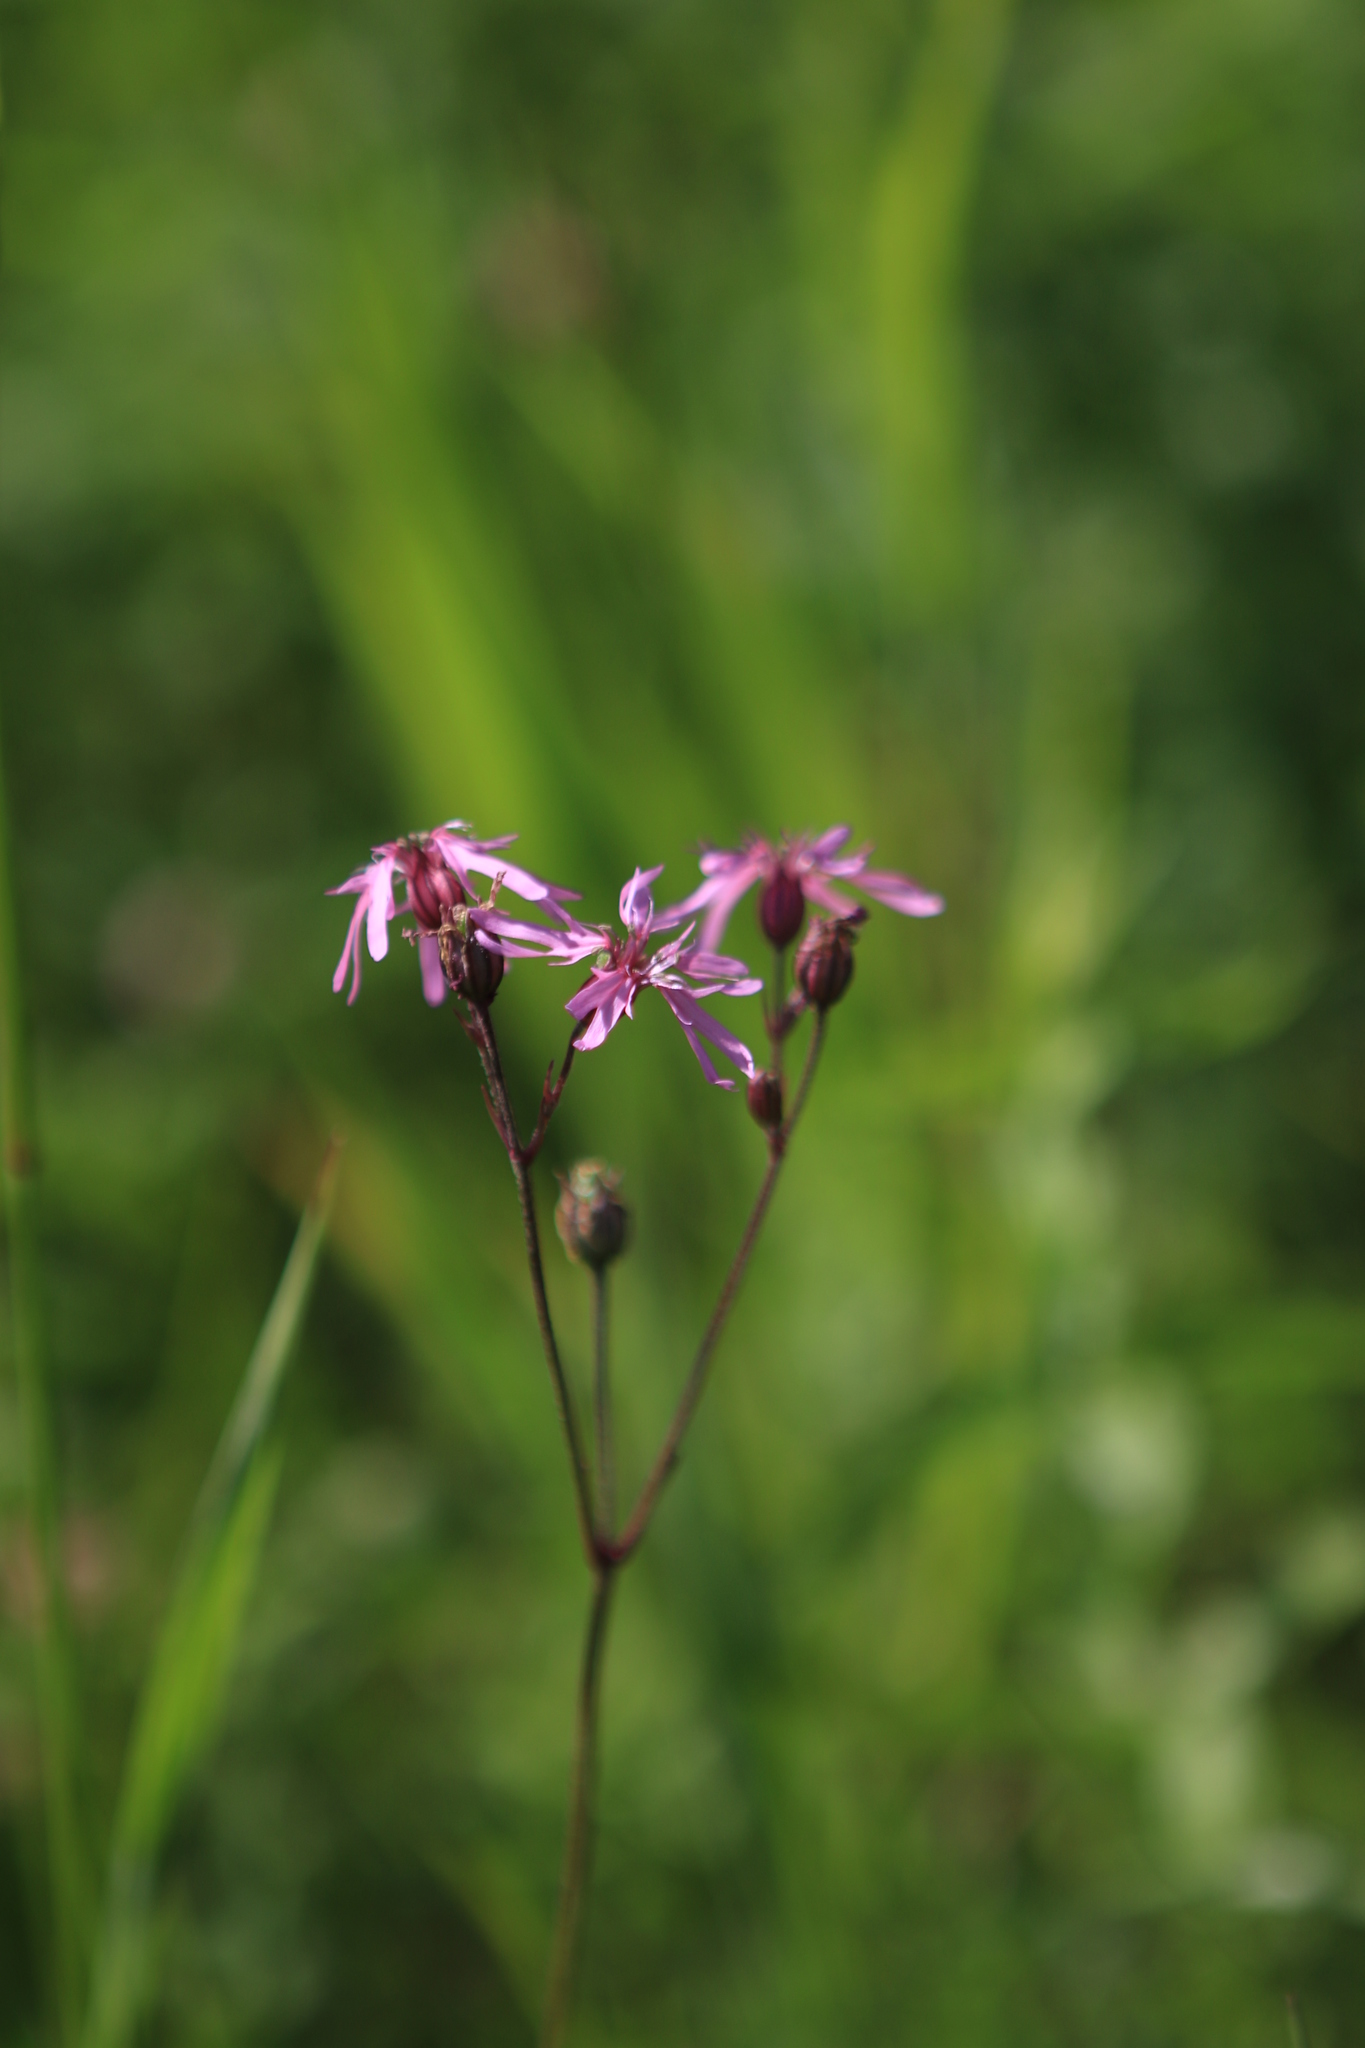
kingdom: Plantae
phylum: Tracheophyta
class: Magnoliopsida
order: Caryophyllales
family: Caryophyllaceae
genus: Silene
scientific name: Silene flos-cuculi
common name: Ragged-robin
